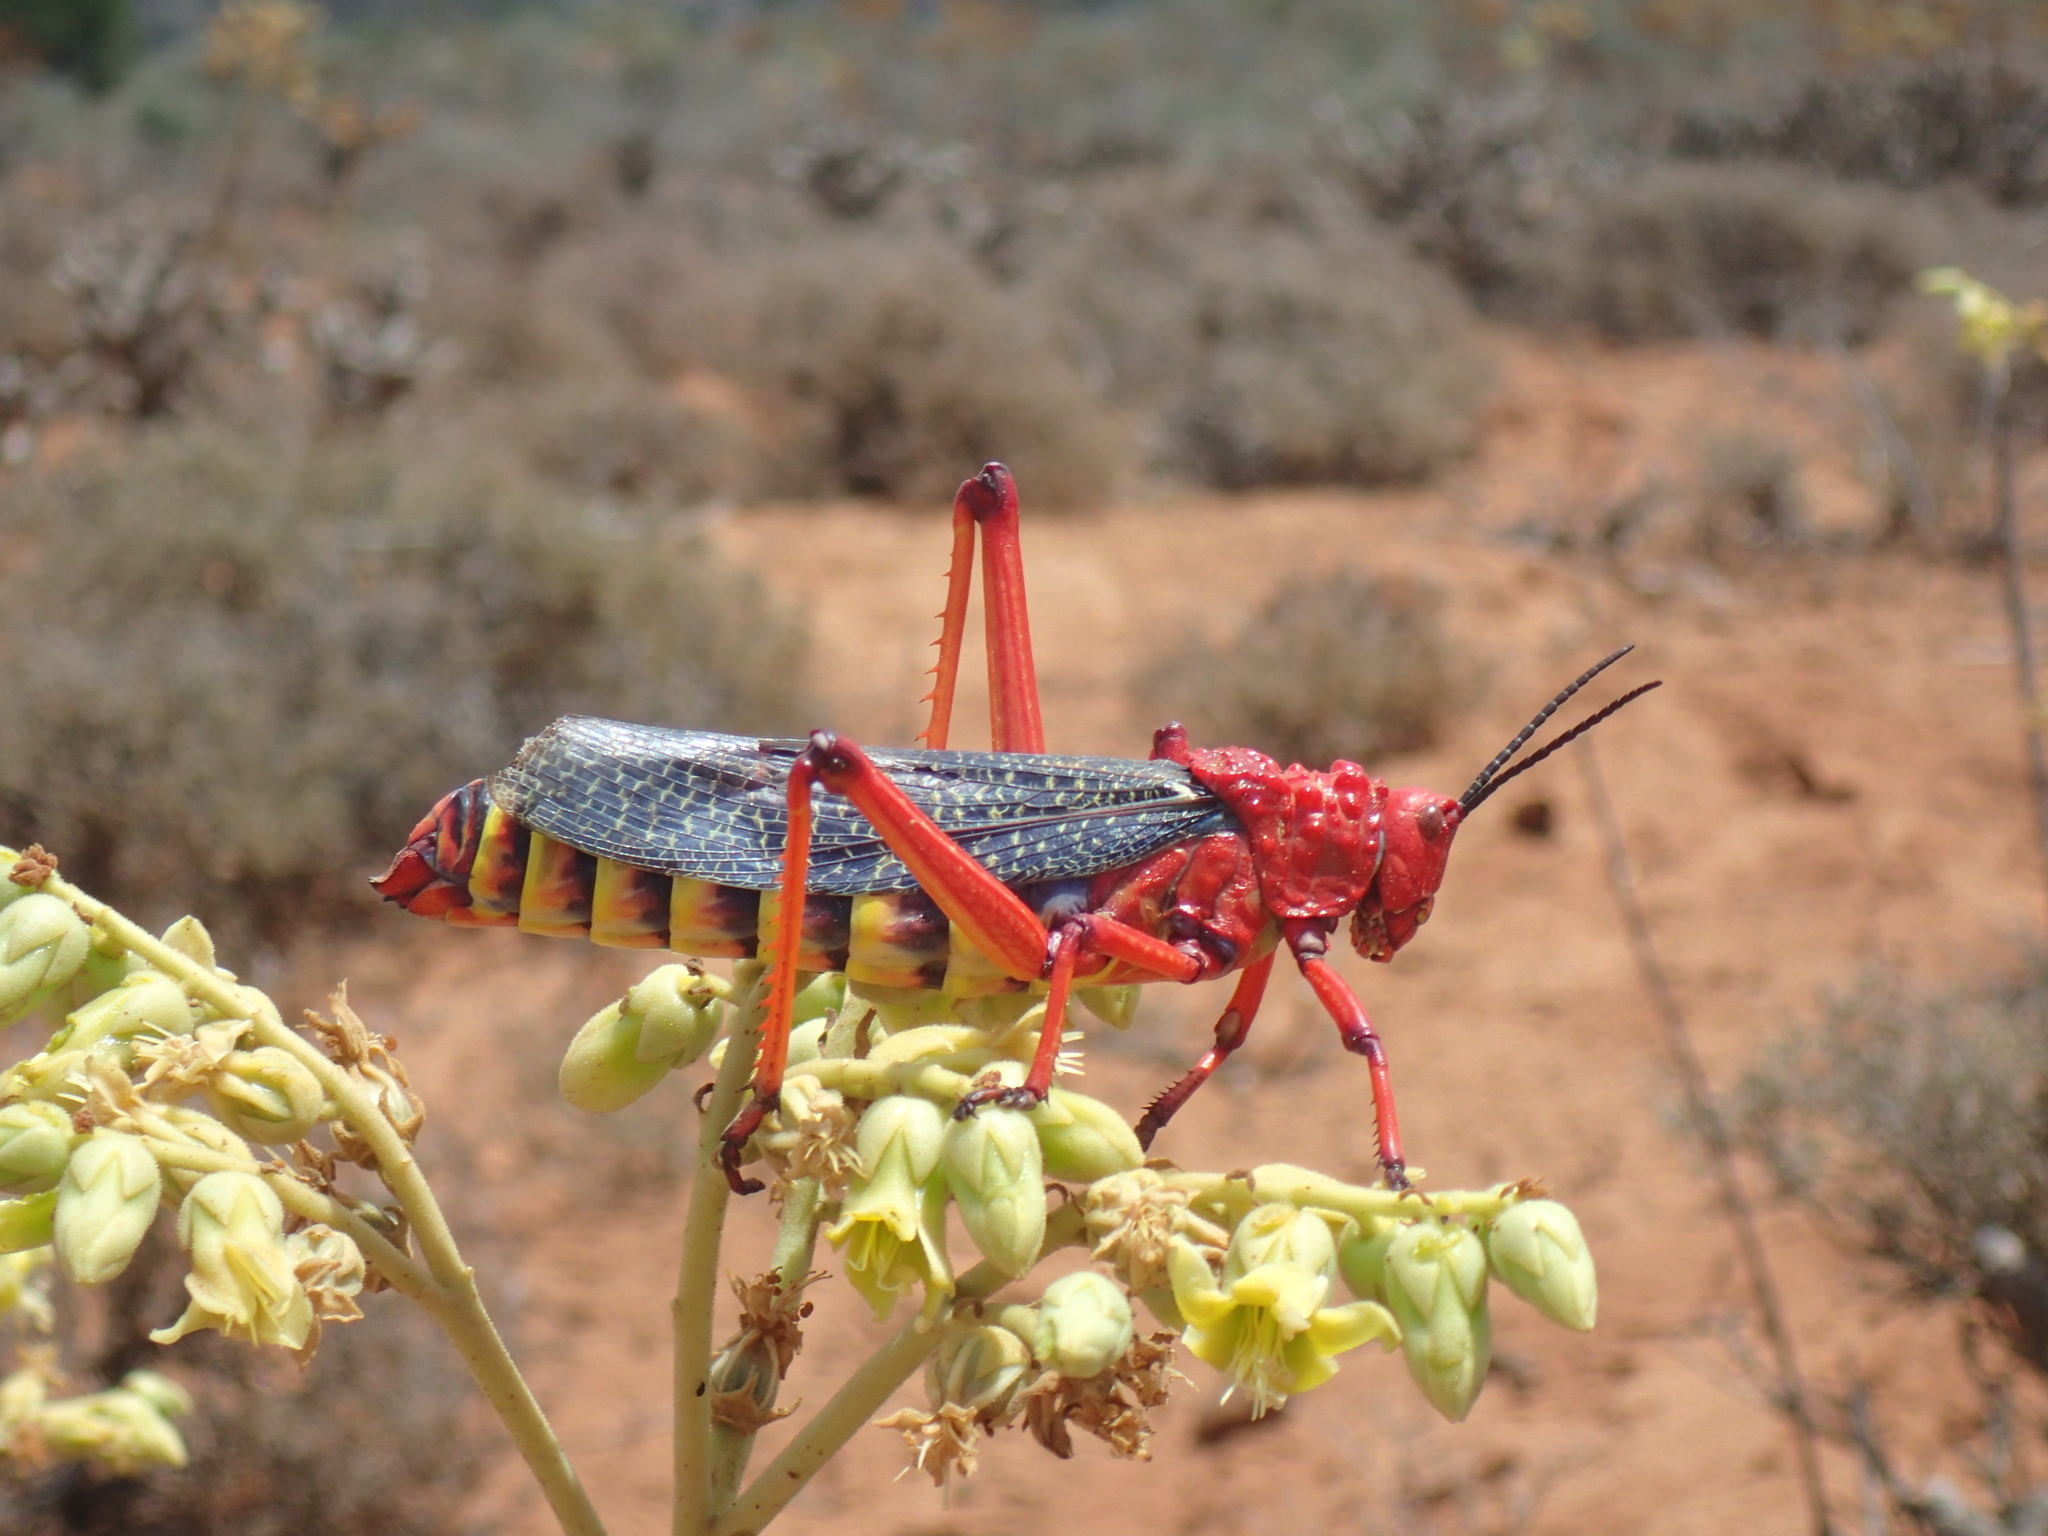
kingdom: Animalia
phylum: Arthropoda
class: Insecta
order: Orthoptera
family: Pyrgomorphidae
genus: Phymateus
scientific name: Phymateus morbillosus
